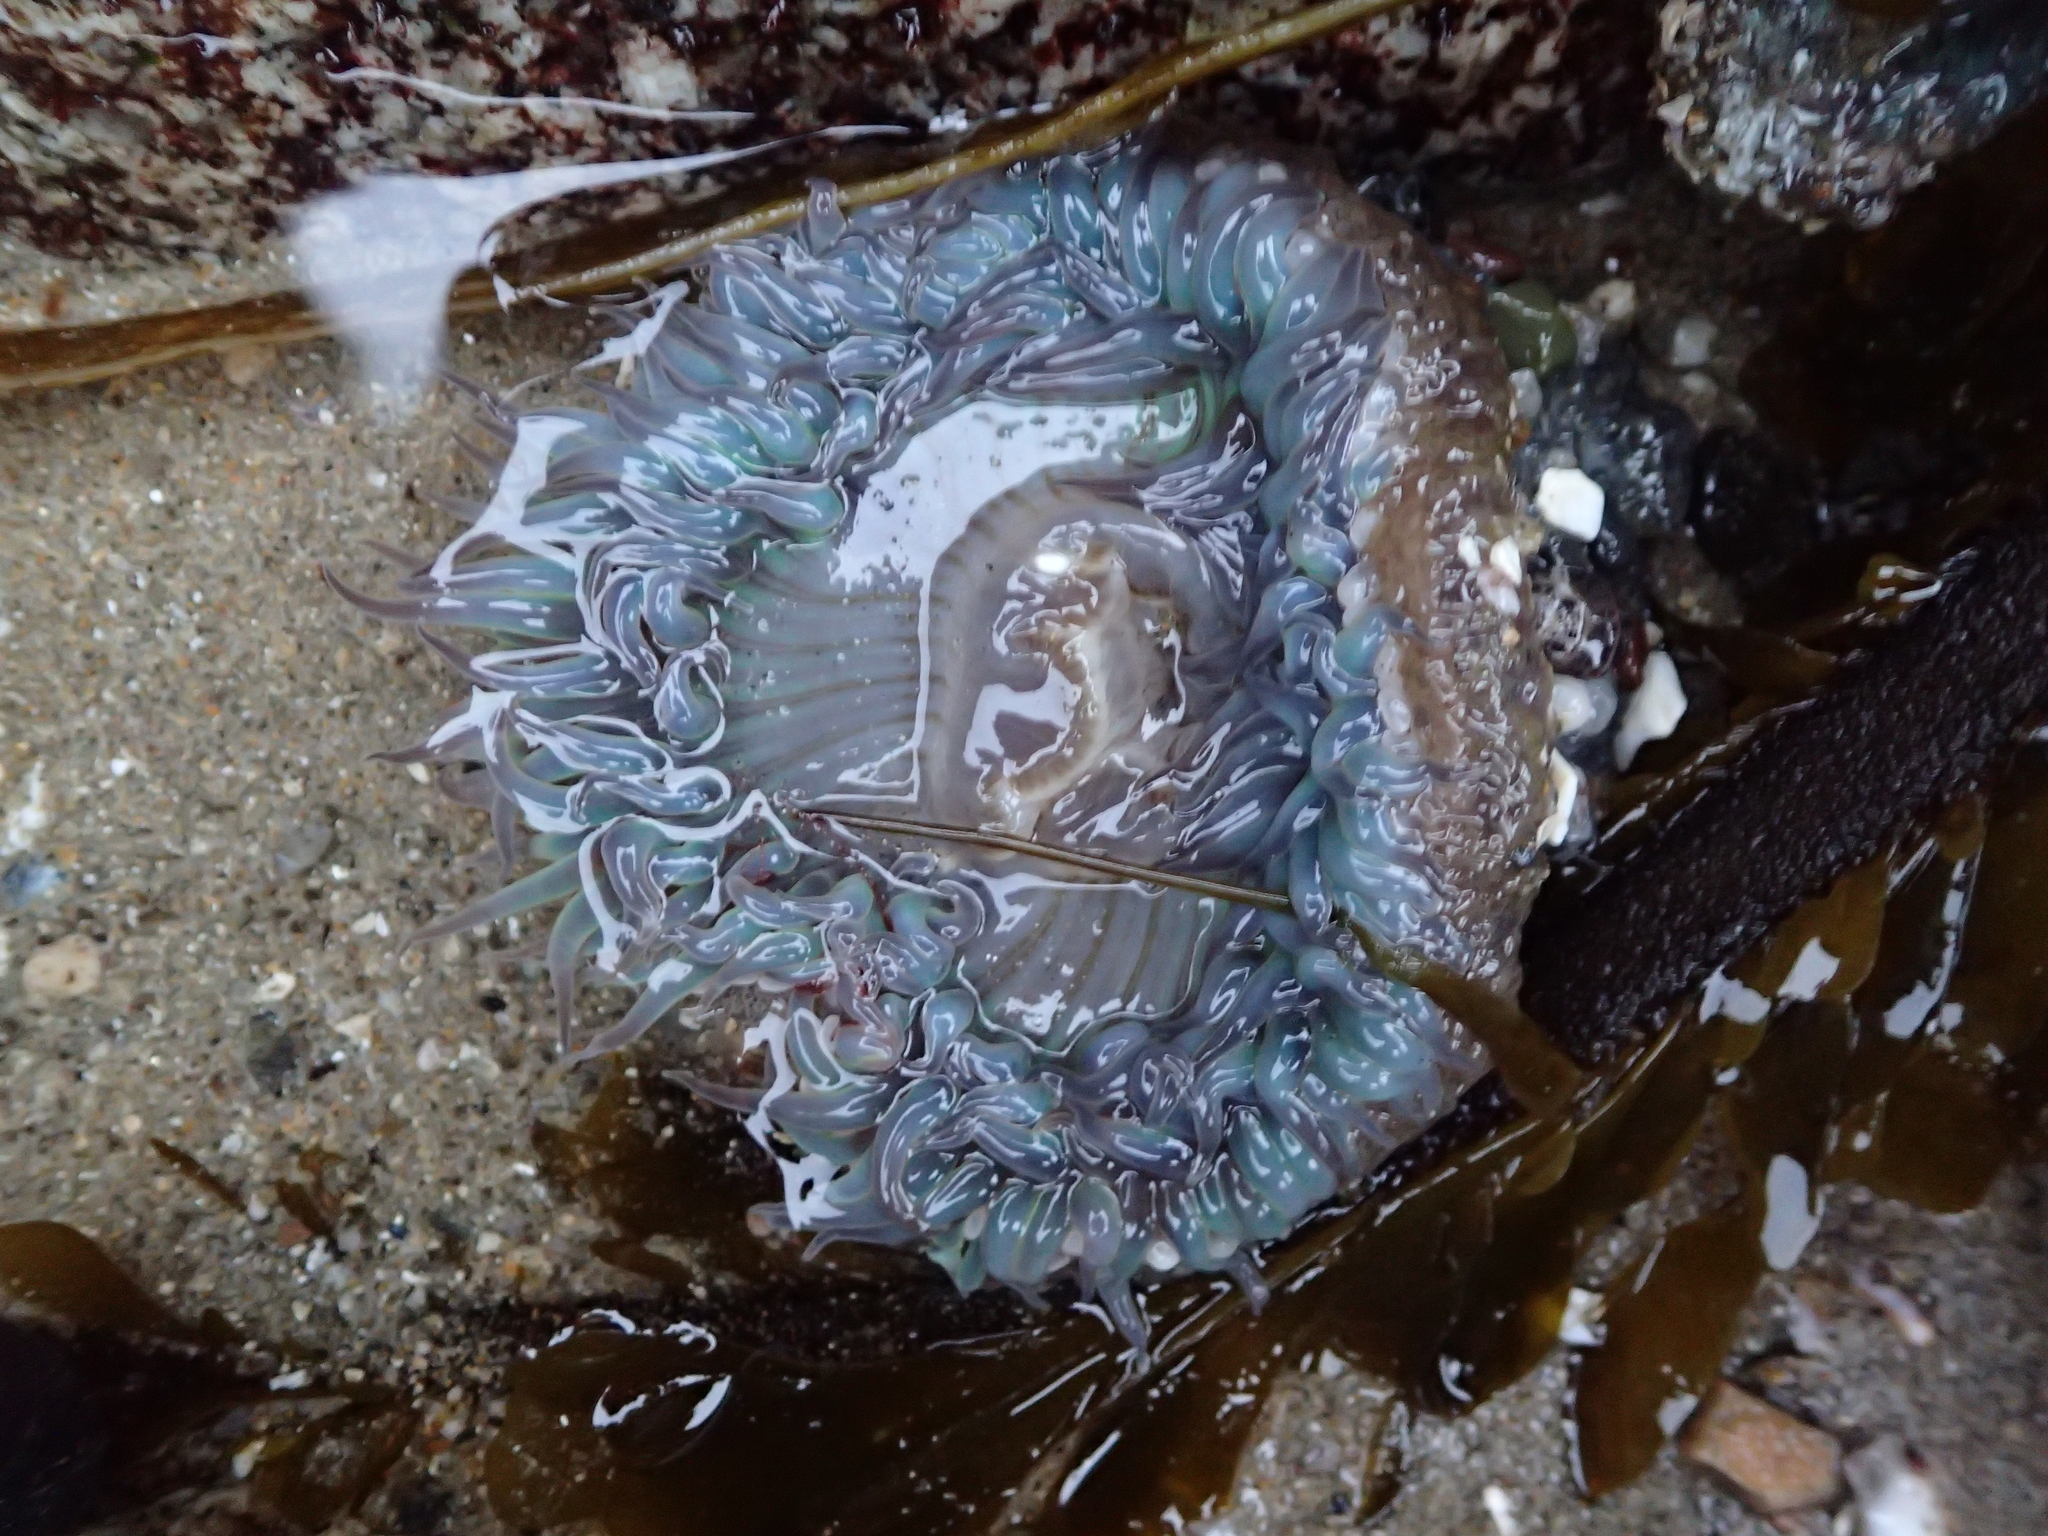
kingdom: Animalia
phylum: Cnidaria
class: Anthozoa
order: Actiniaria
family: Actiniidae
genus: Anthopleura
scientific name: Anthopleura sola
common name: Sun anemone
